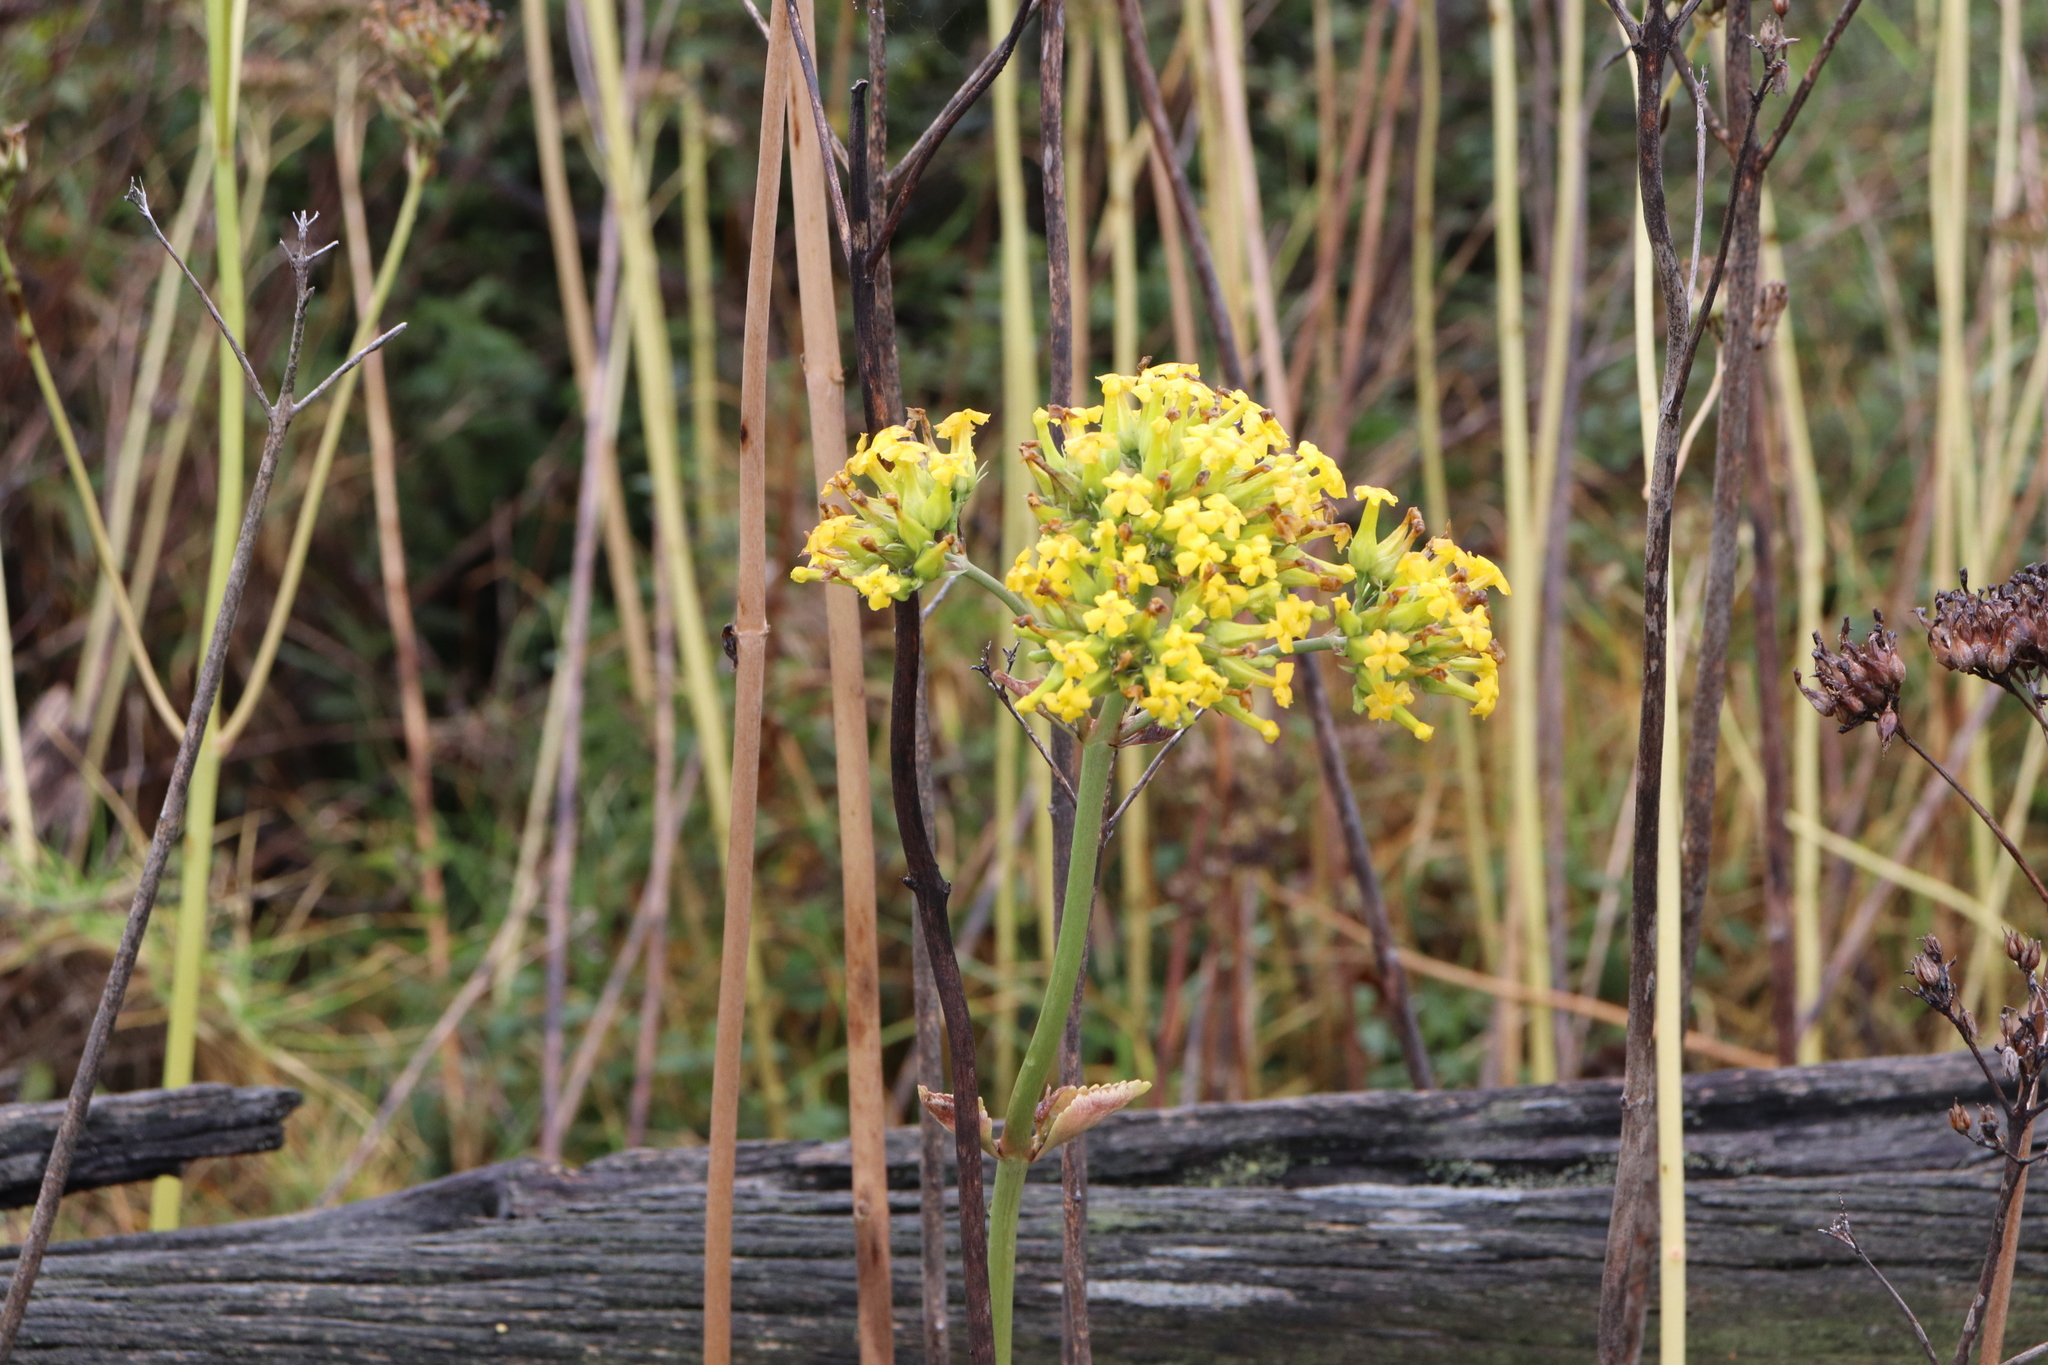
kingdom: Plantae
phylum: Tracheophyta
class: Magnoliopsida
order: Saxifragales
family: Crassulaceae
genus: Kalanchoe
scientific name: Kalanchoe densiflora
